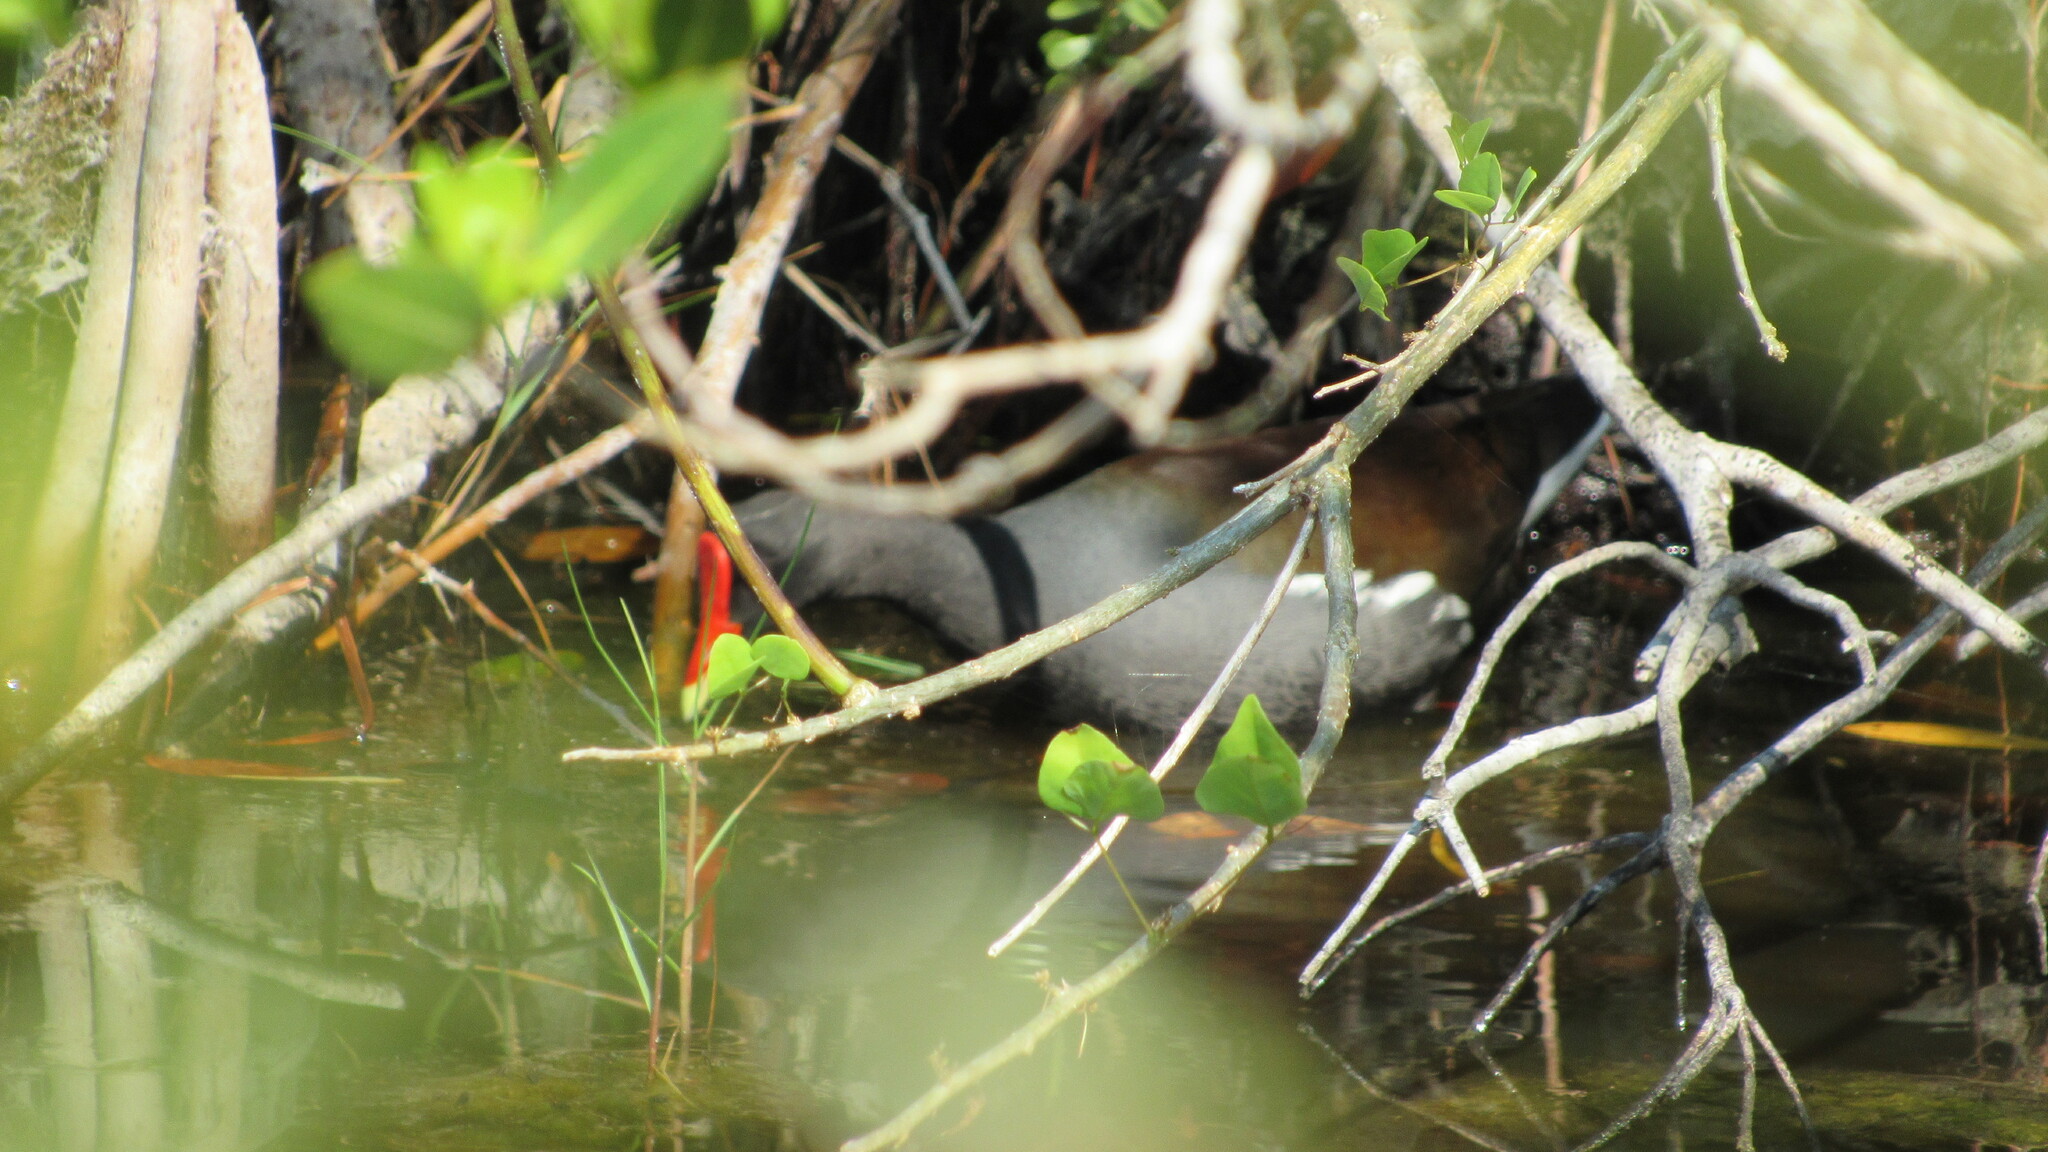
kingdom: Animalia
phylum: Chordata
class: Aves
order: Gruiformes
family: Rallidae
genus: Gallinula
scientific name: Gallinula chloropus
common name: Common moorhen
